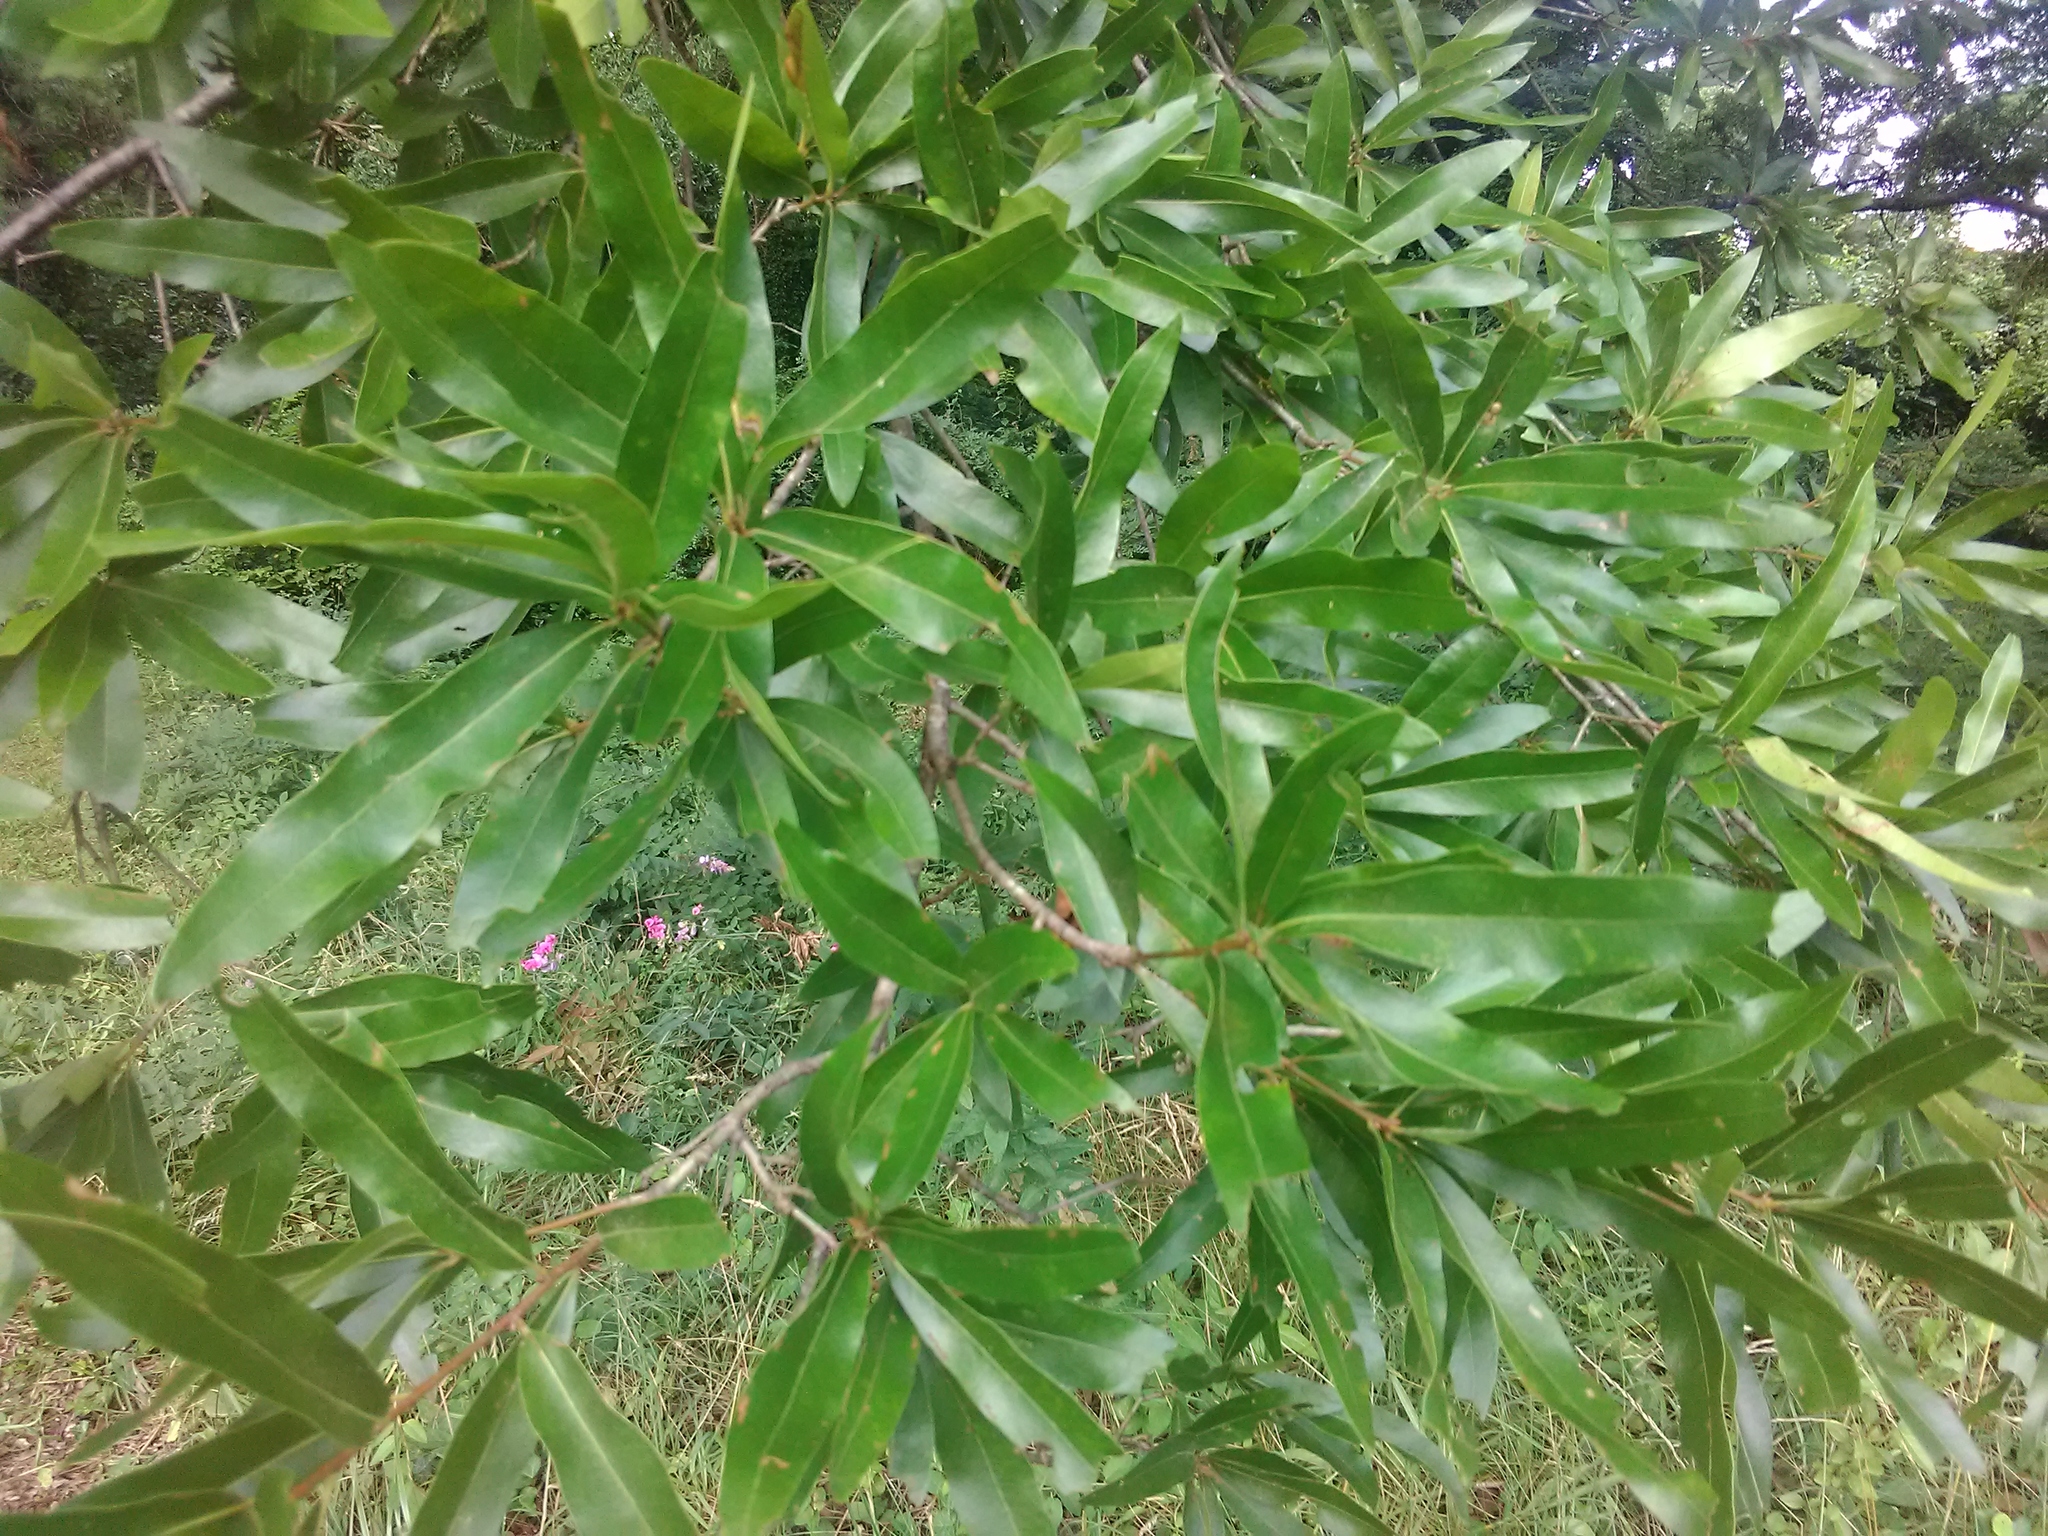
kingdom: Plantae
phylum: Tracheophyta
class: Magnoliopsida
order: Fagales
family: Fagaceae
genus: Quercus
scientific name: Quercus phellos
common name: Willow oak
